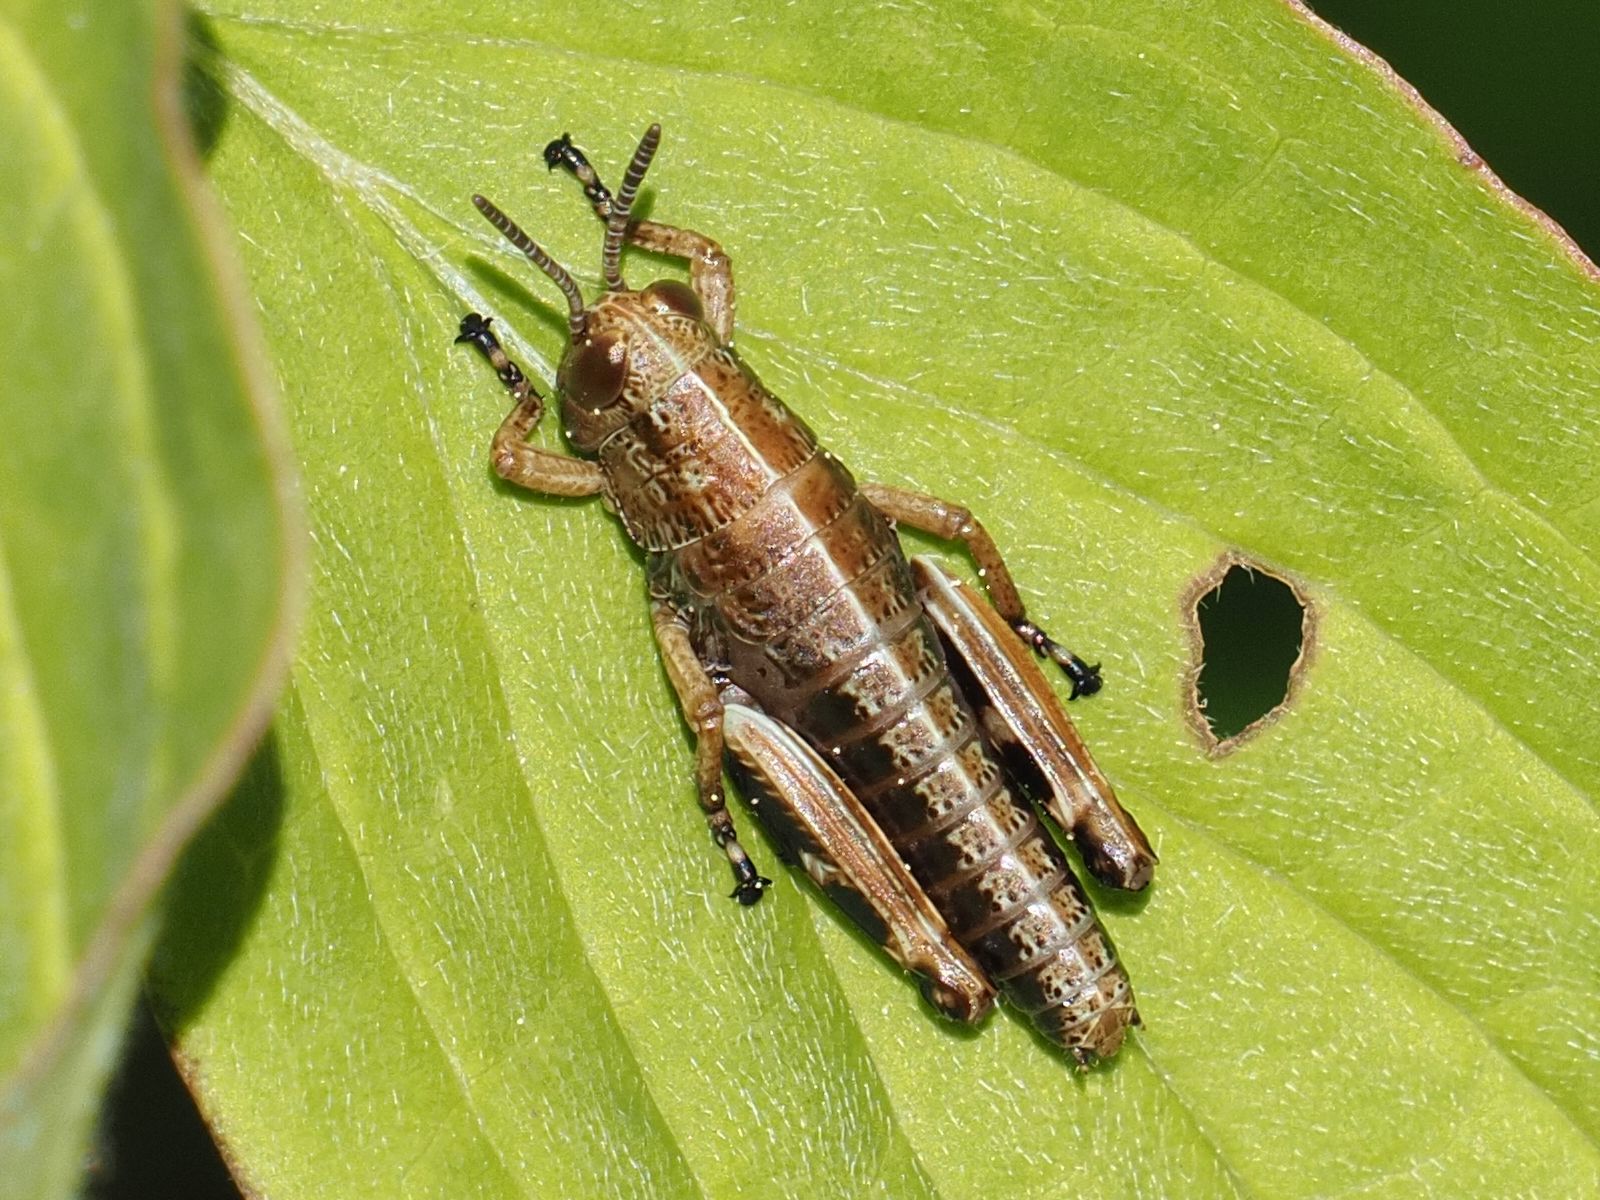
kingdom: Animalia
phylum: Arthropoda
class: Insecta
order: Orthoptera
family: Acrididae
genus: Miramella
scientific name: Miramella alpina
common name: Green mountain grasshopper
